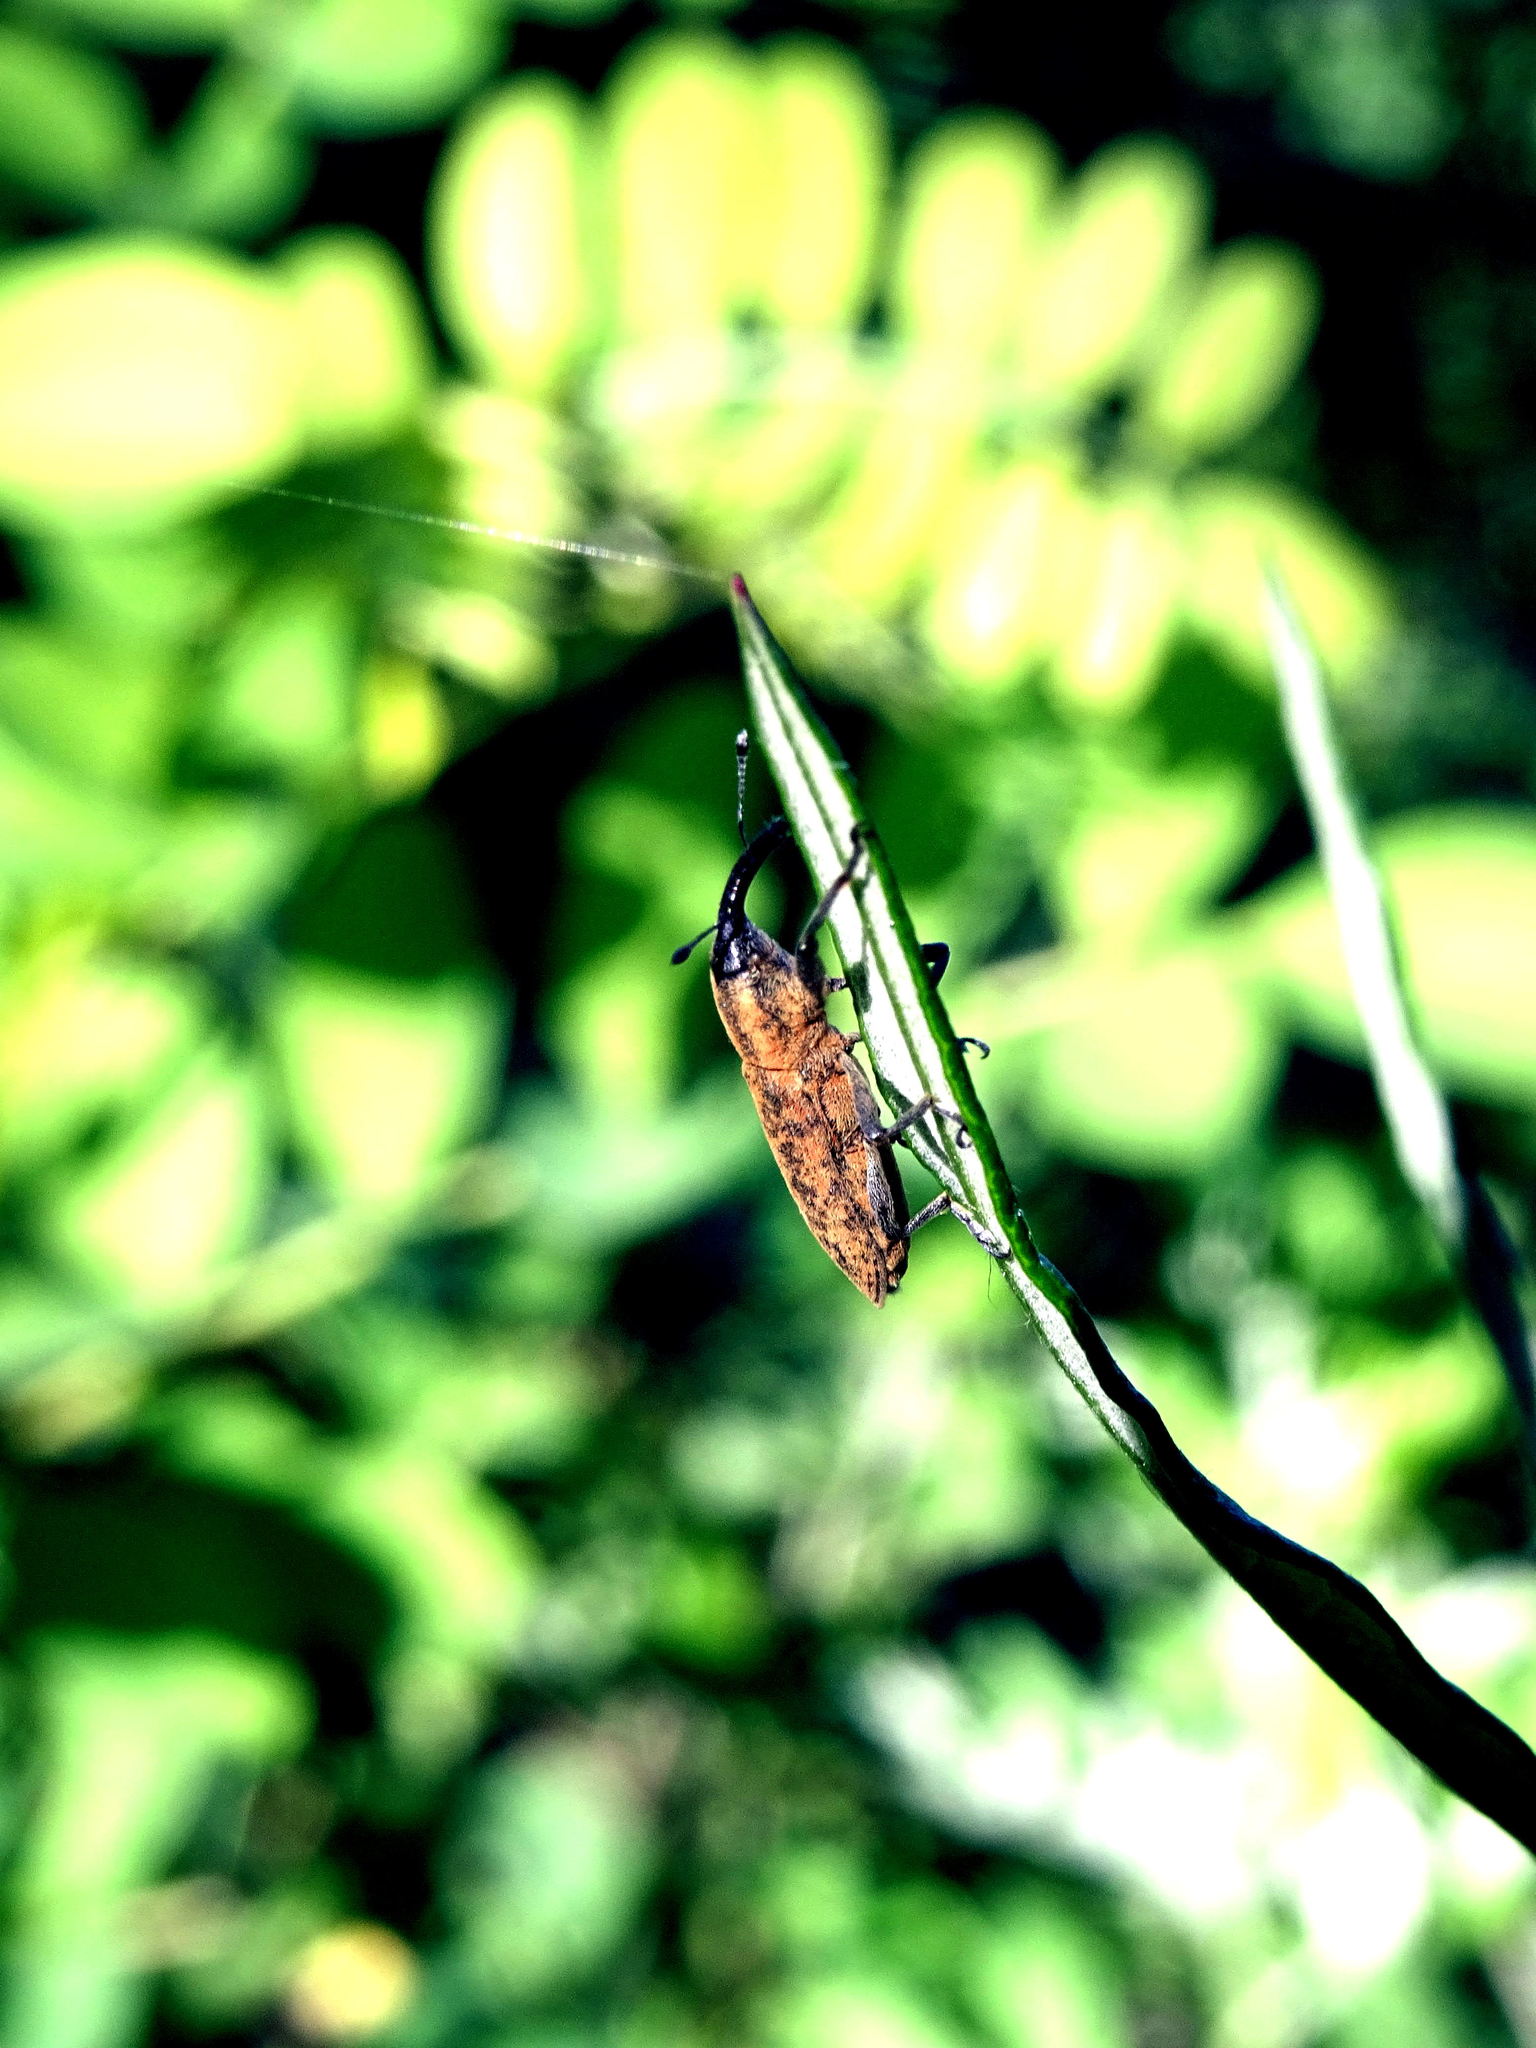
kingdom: Animalia
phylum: Arthropoda
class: Insecta
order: Coleoptera
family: Curculionidae
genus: Lixus
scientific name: Lixus fasciculatus
